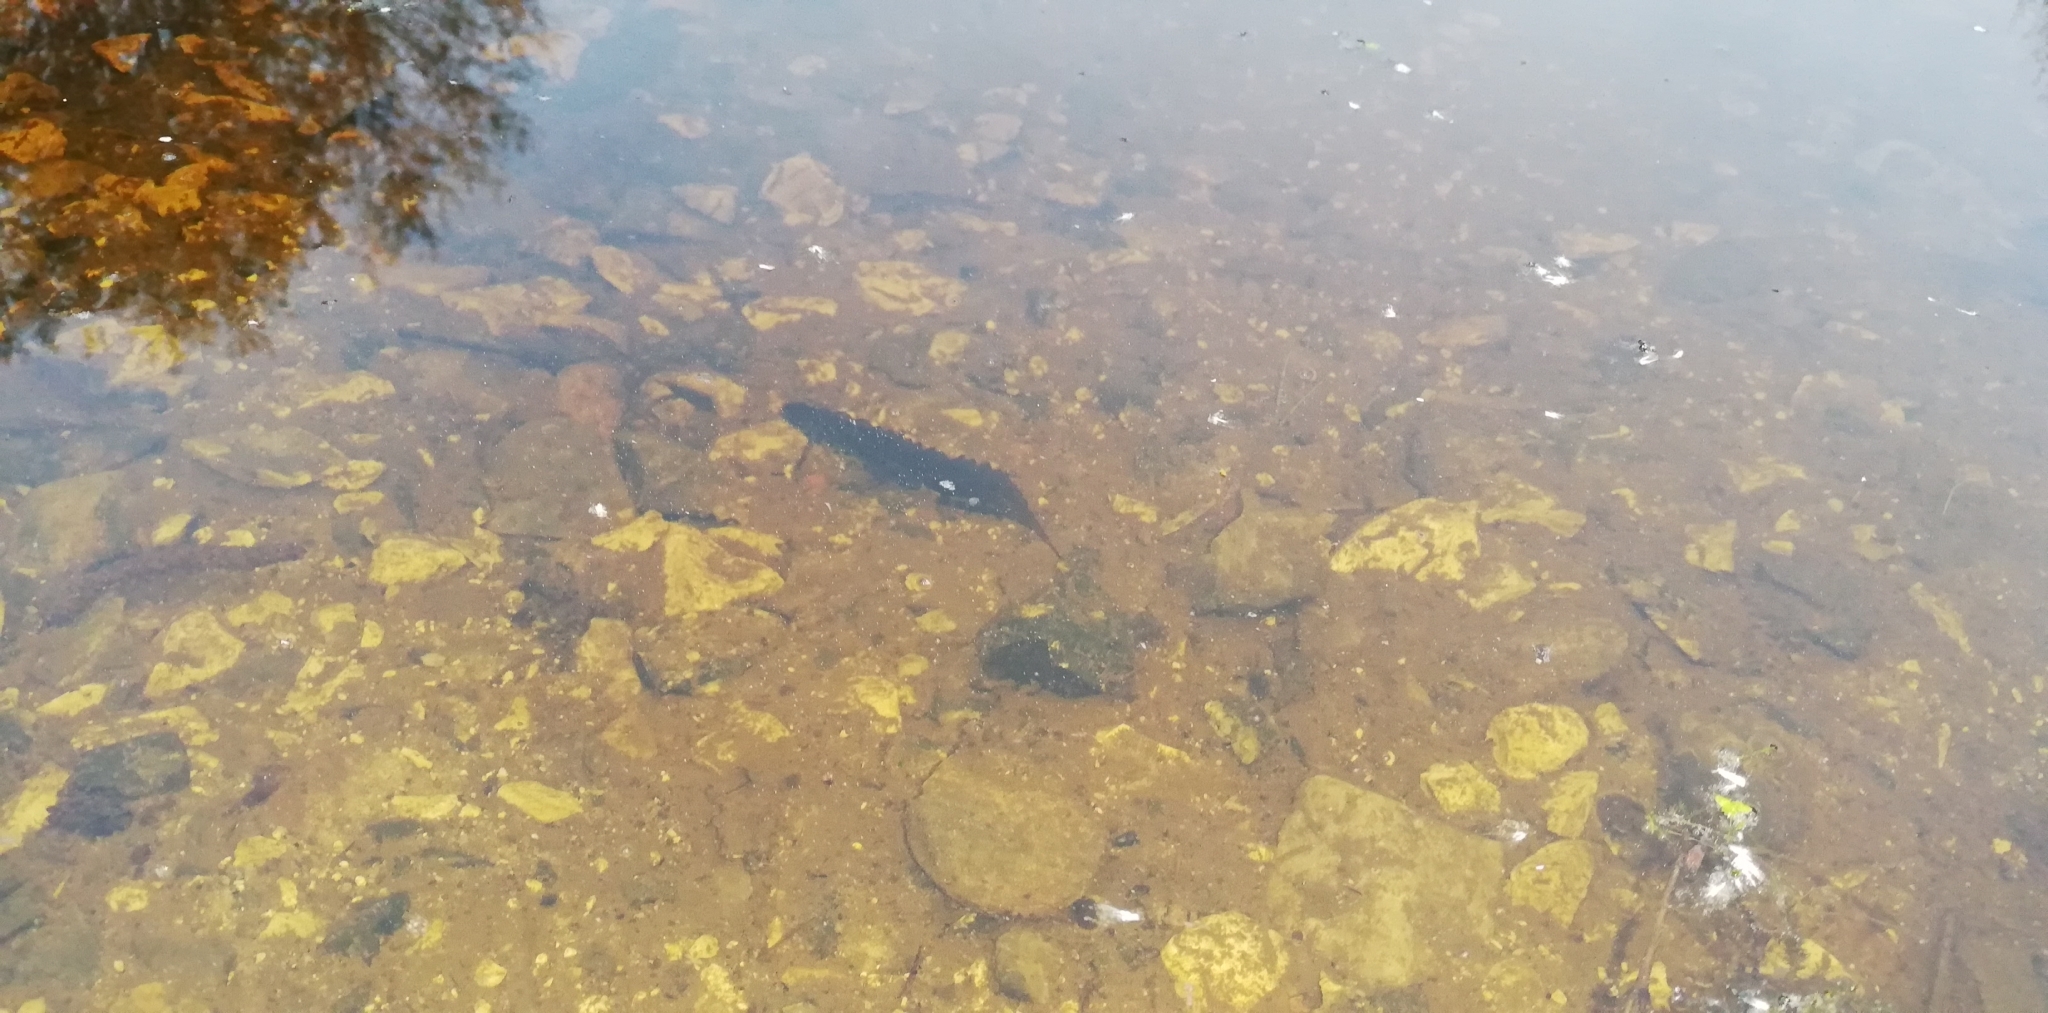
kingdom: Animalia
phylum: Chordata
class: Amphibia
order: Caudata
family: Salamandridae
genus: Lissotriton
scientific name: Lissotriton vulgaris
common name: Smooth newt
